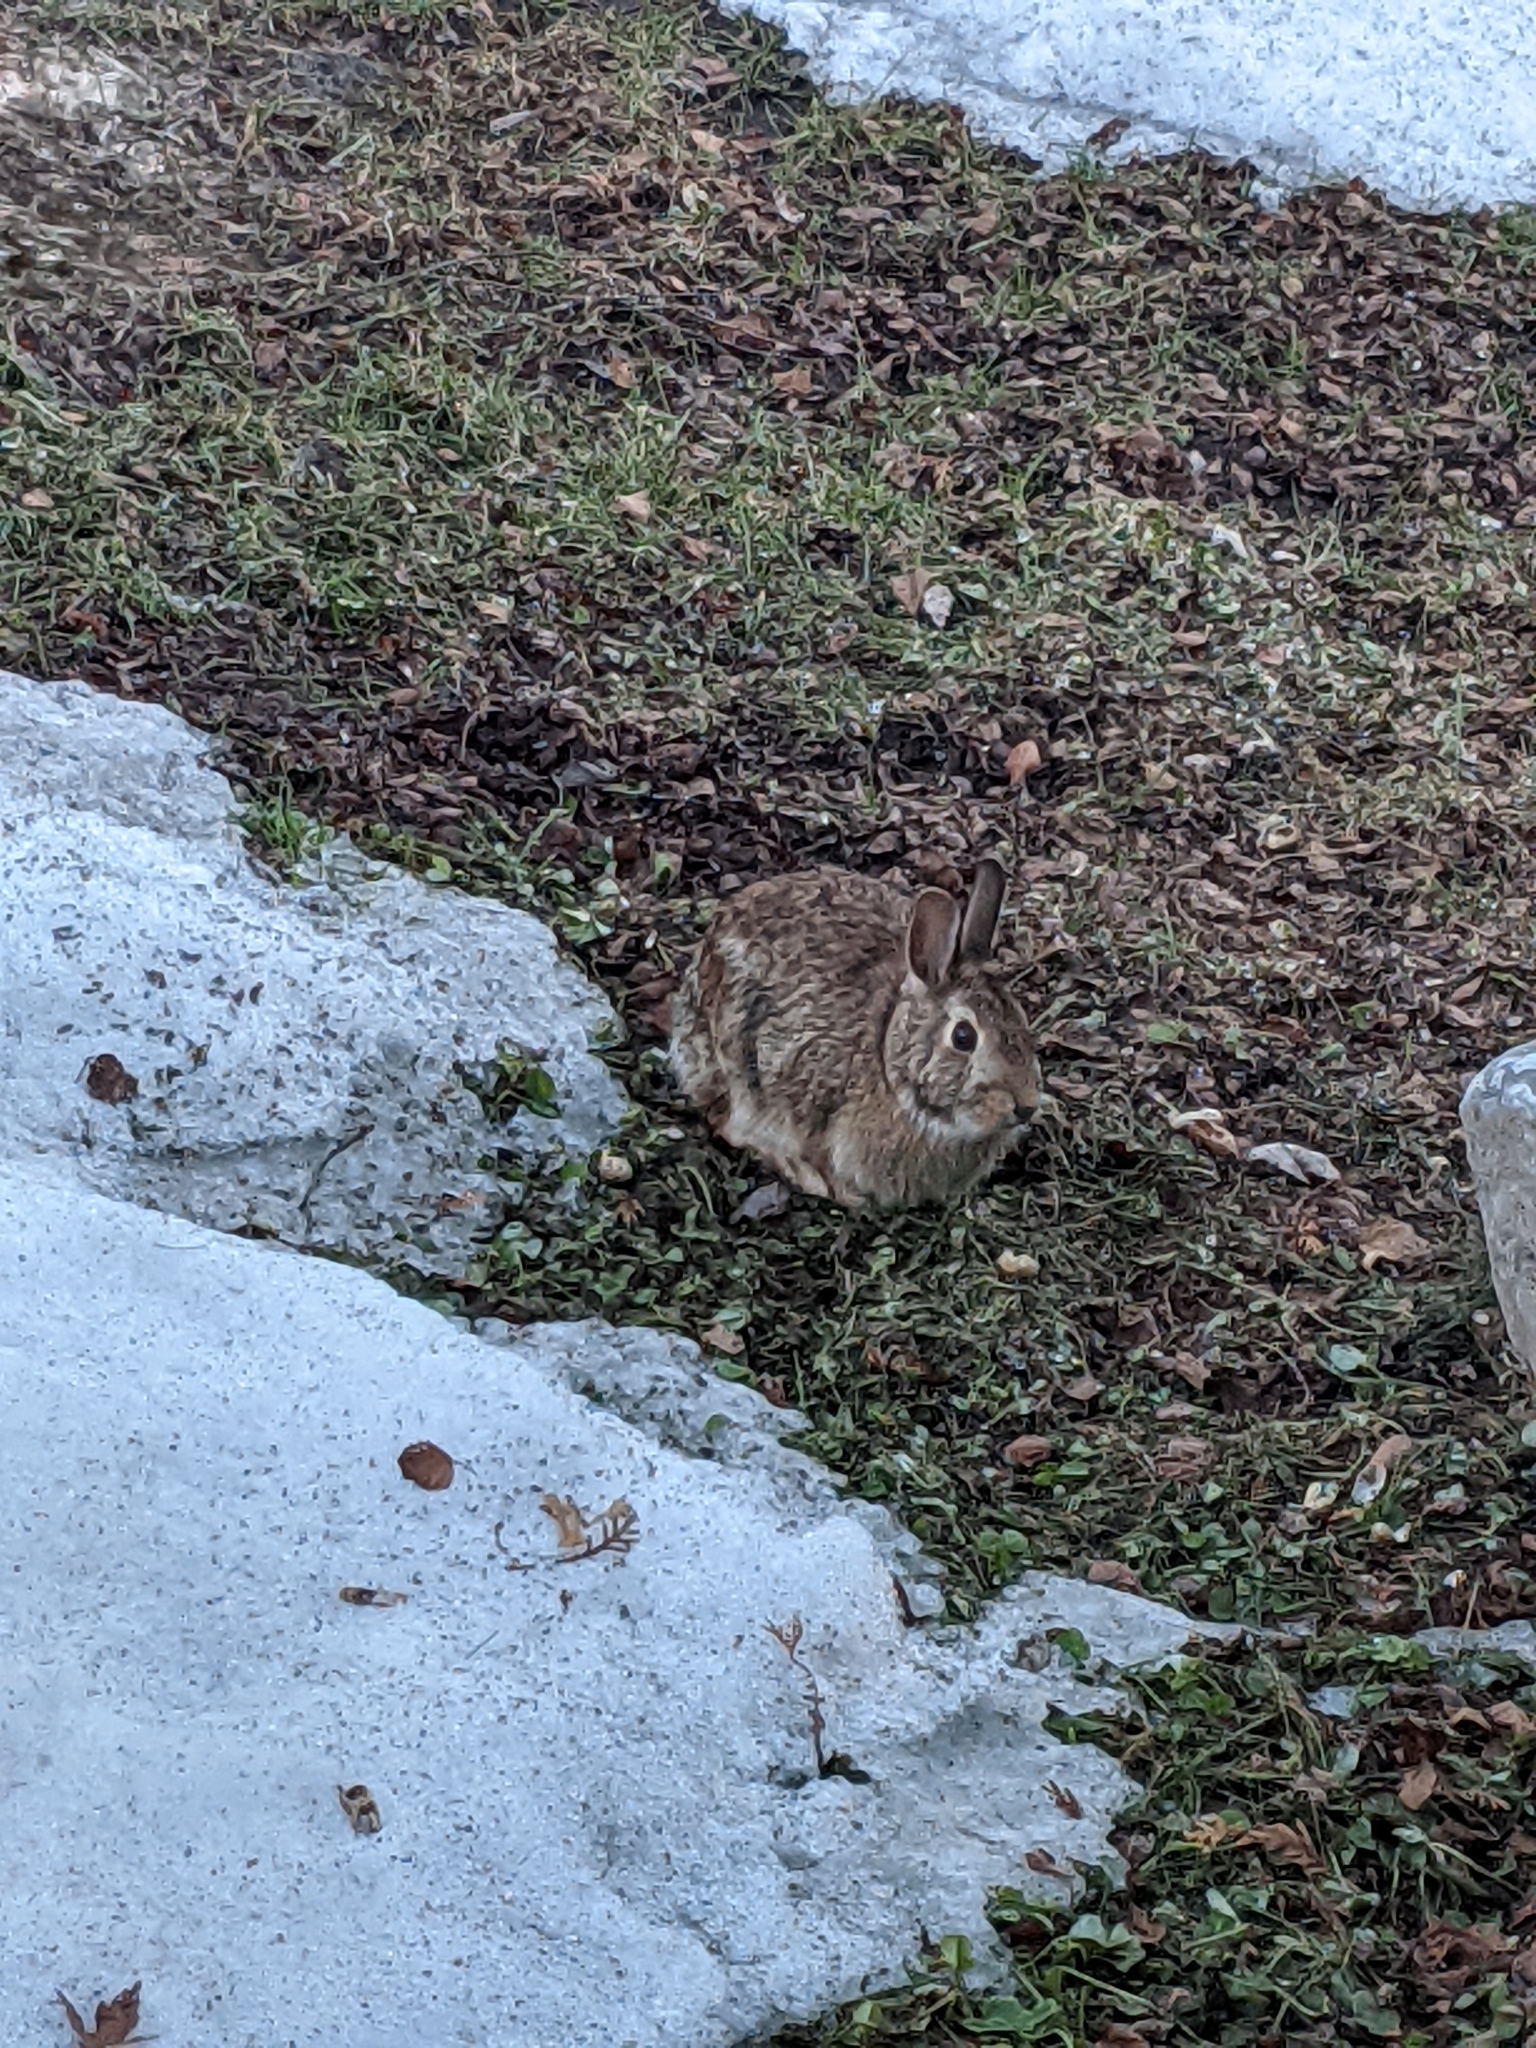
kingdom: Animalia
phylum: Chordata
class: Mammalia
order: Lagomorpha
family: Leporidae
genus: Sylvilagus
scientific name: Sylvilagus floridanus
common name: Eastern cottontail
